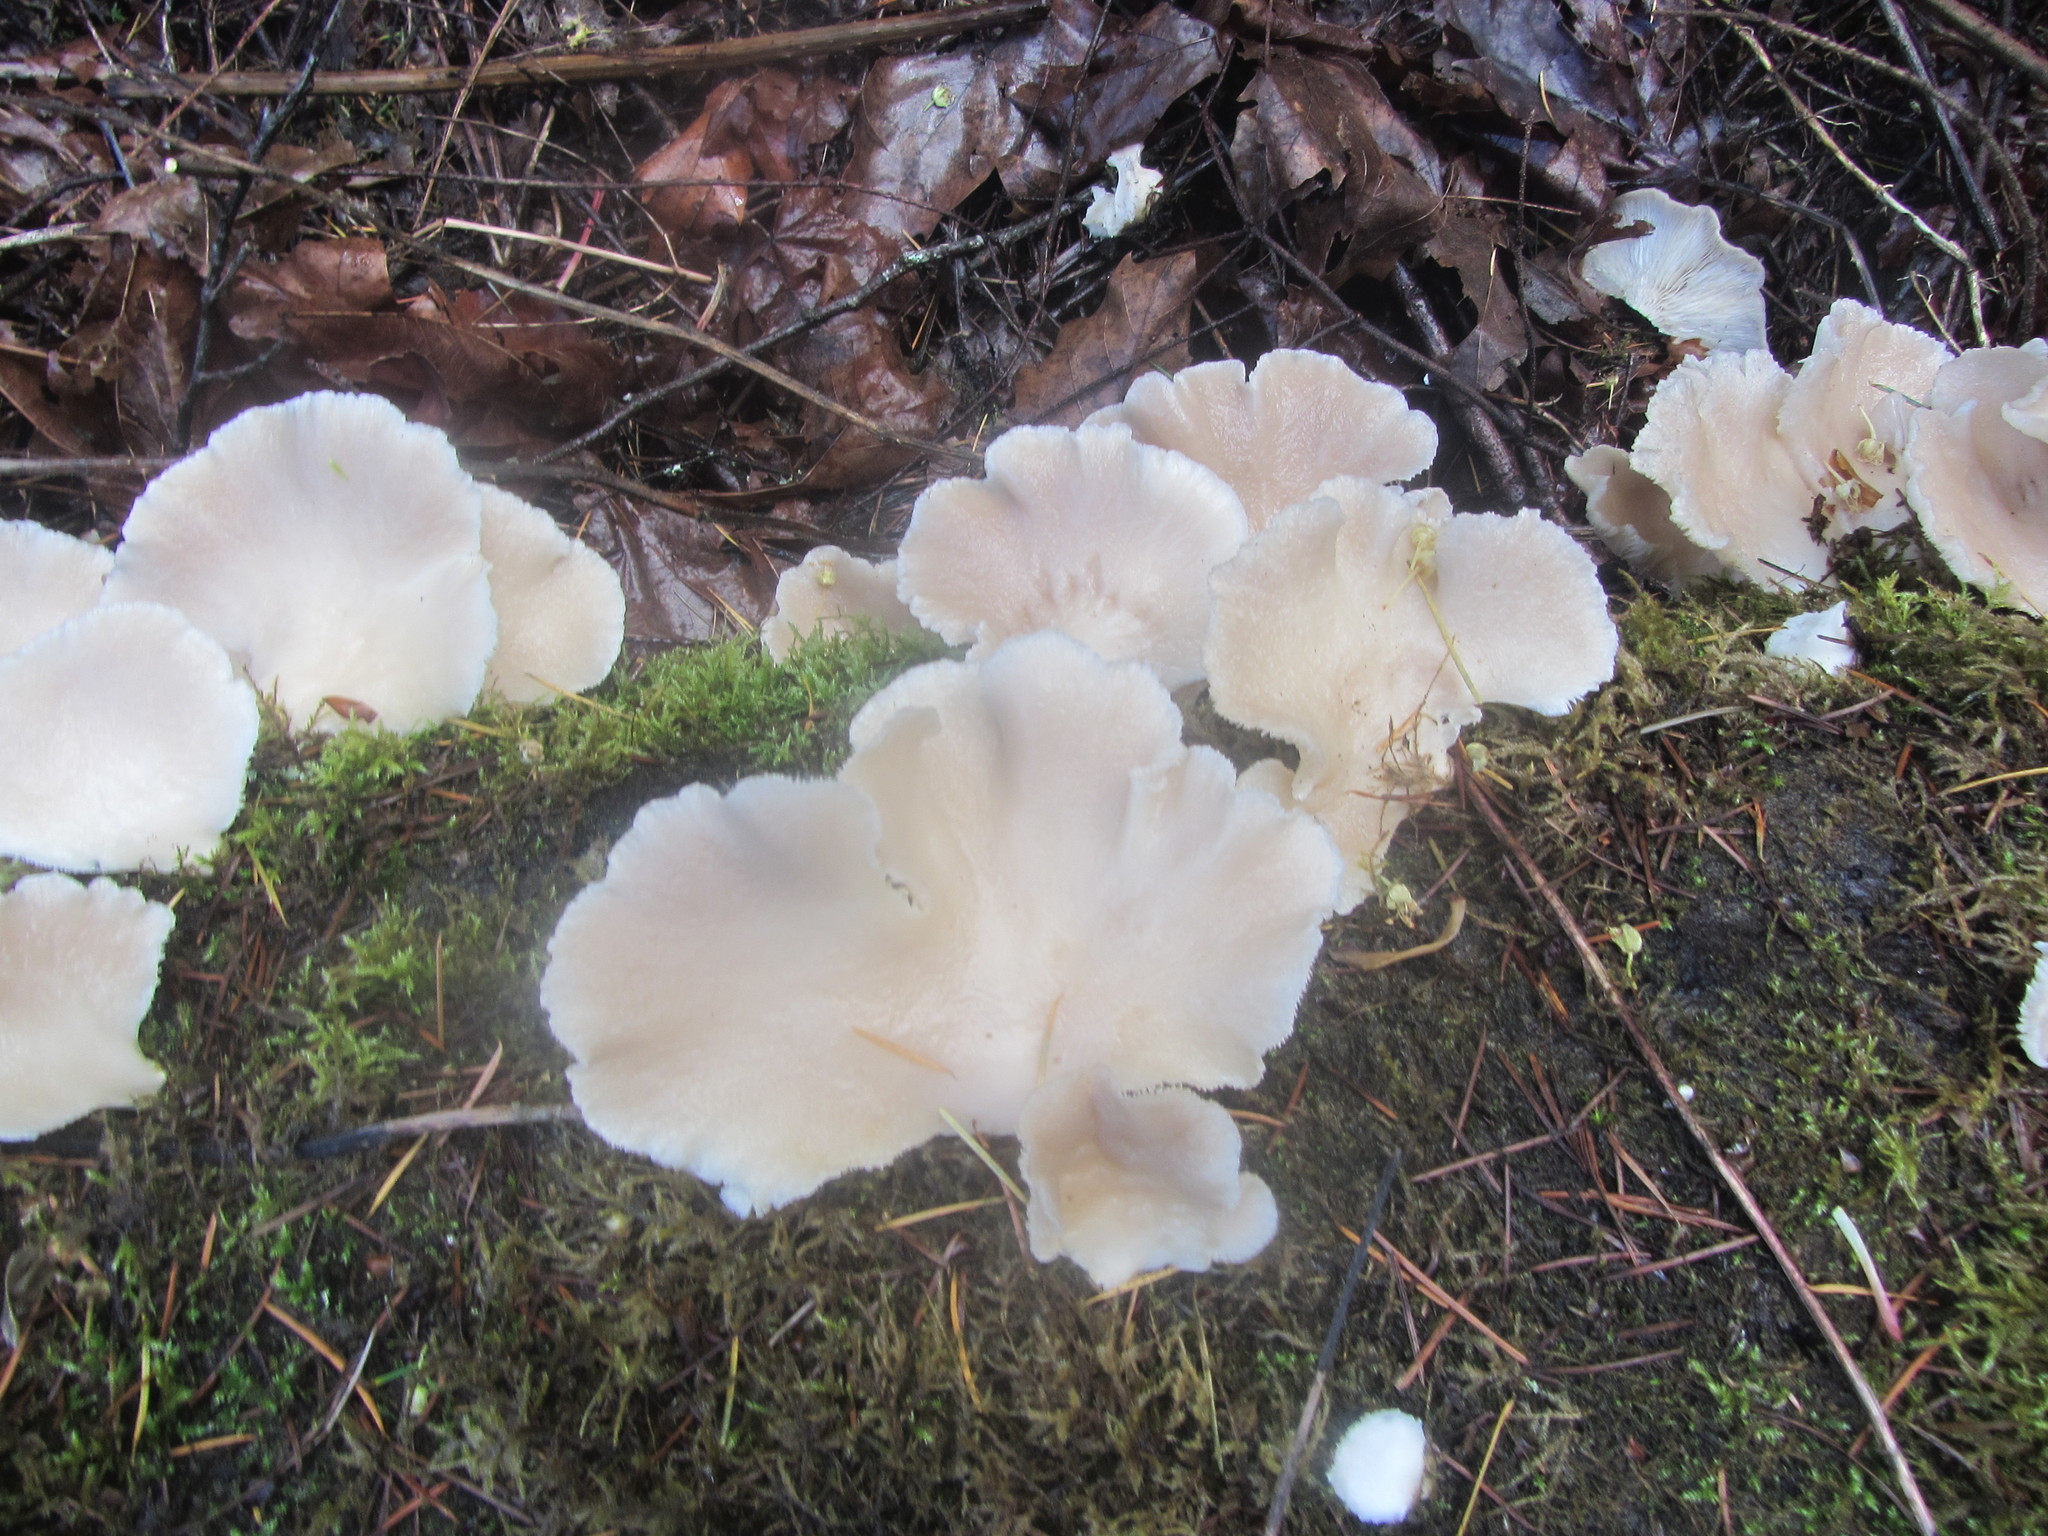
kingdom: Fungi
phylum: Basidiomycota
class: Agaricomycetes
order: Agaricales
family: Pleurotaceae
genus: Pleurotus
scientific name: Pleurotus ostreatus
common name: Oyster mushroom
